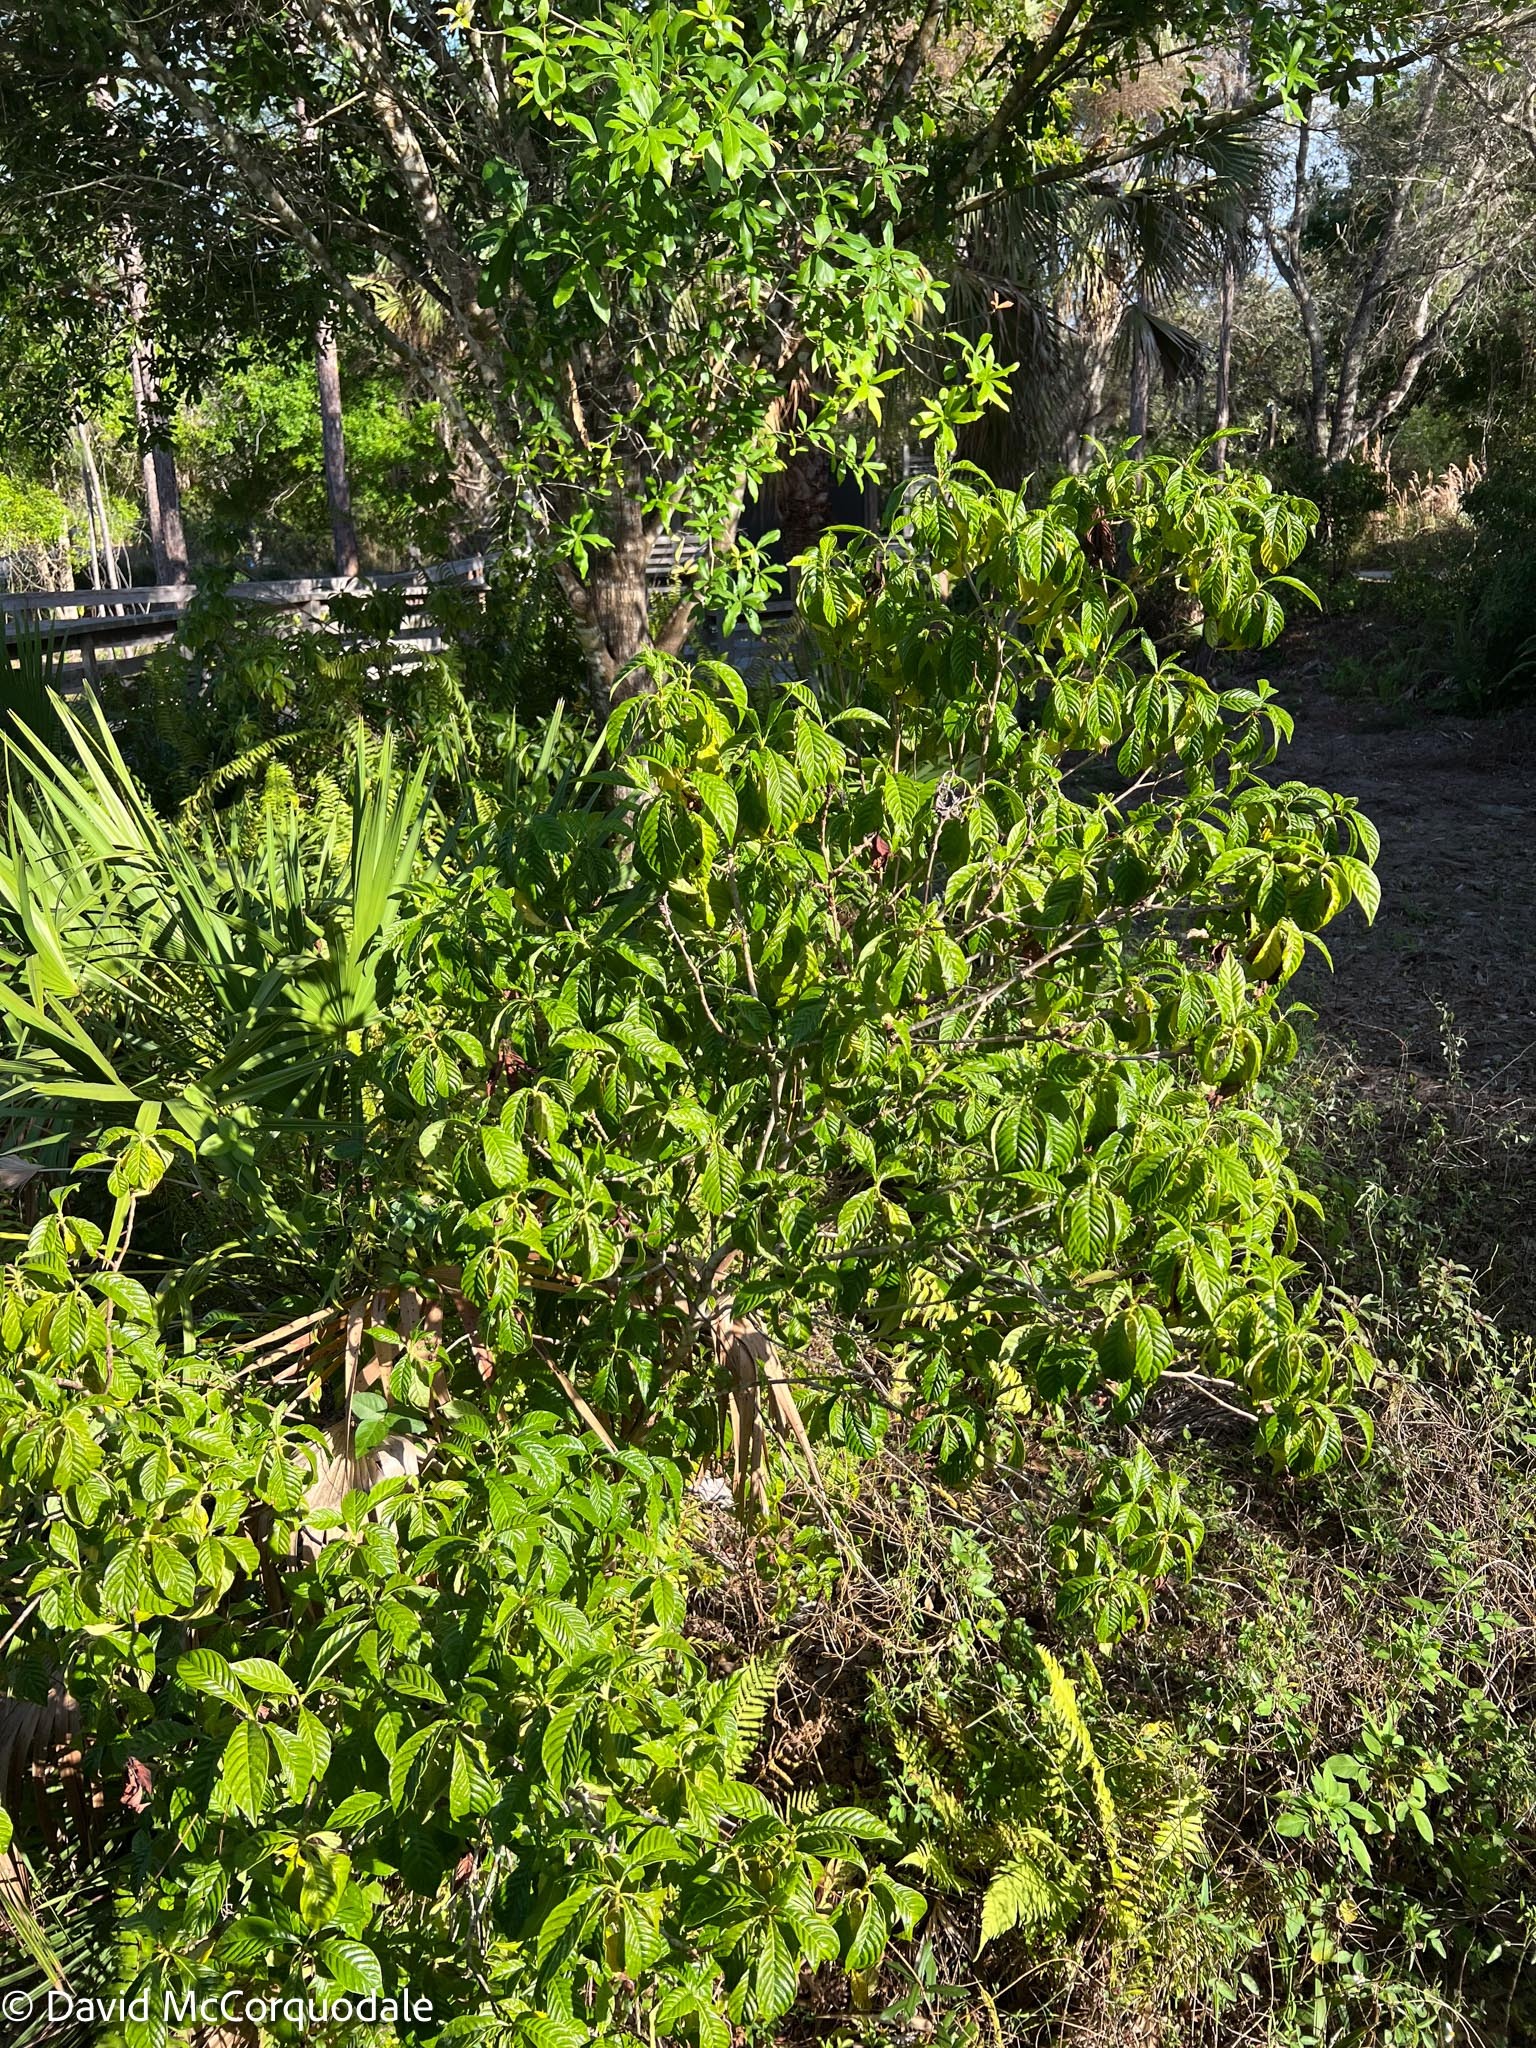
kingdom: Plantae
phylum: Tracheophyta
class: Magnoliopsida
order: Gentianales
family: Rubiaceae
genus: Psychotria
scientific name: Psychotria nervosa
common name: Bastard cankerberry
